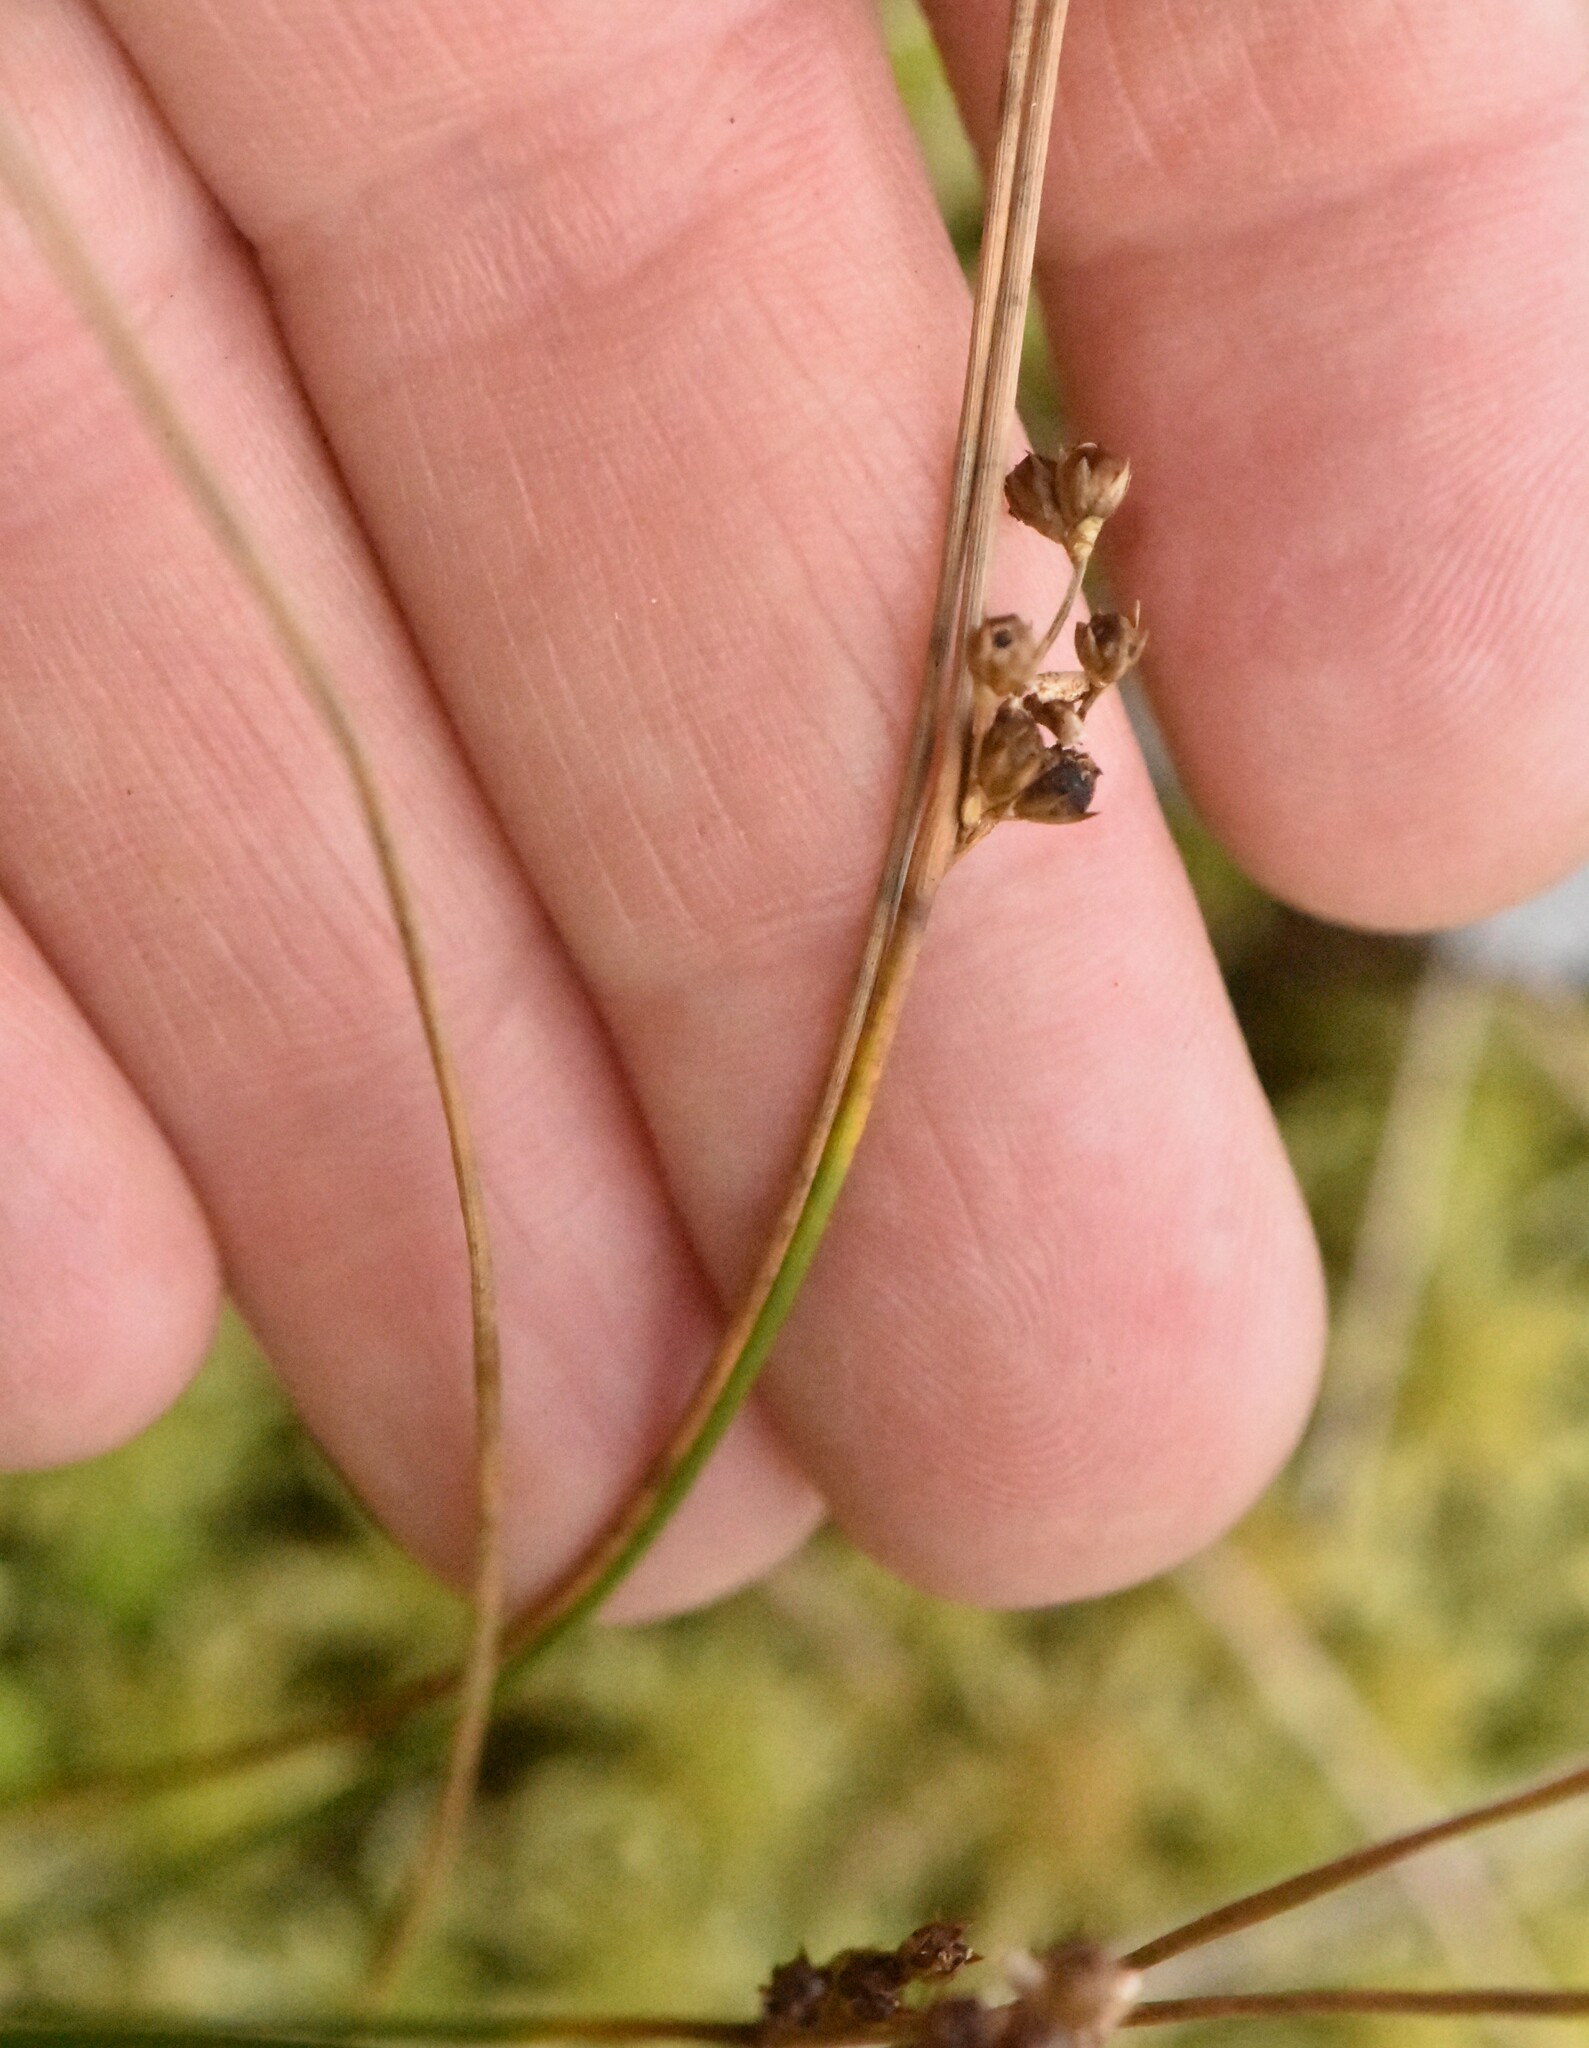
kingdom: Plantae
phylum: Tracheophyta
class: Liliopsida
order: Poales
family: Juncaceae
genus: Juncus
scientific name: Juncus filiformis
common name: Thread rush
